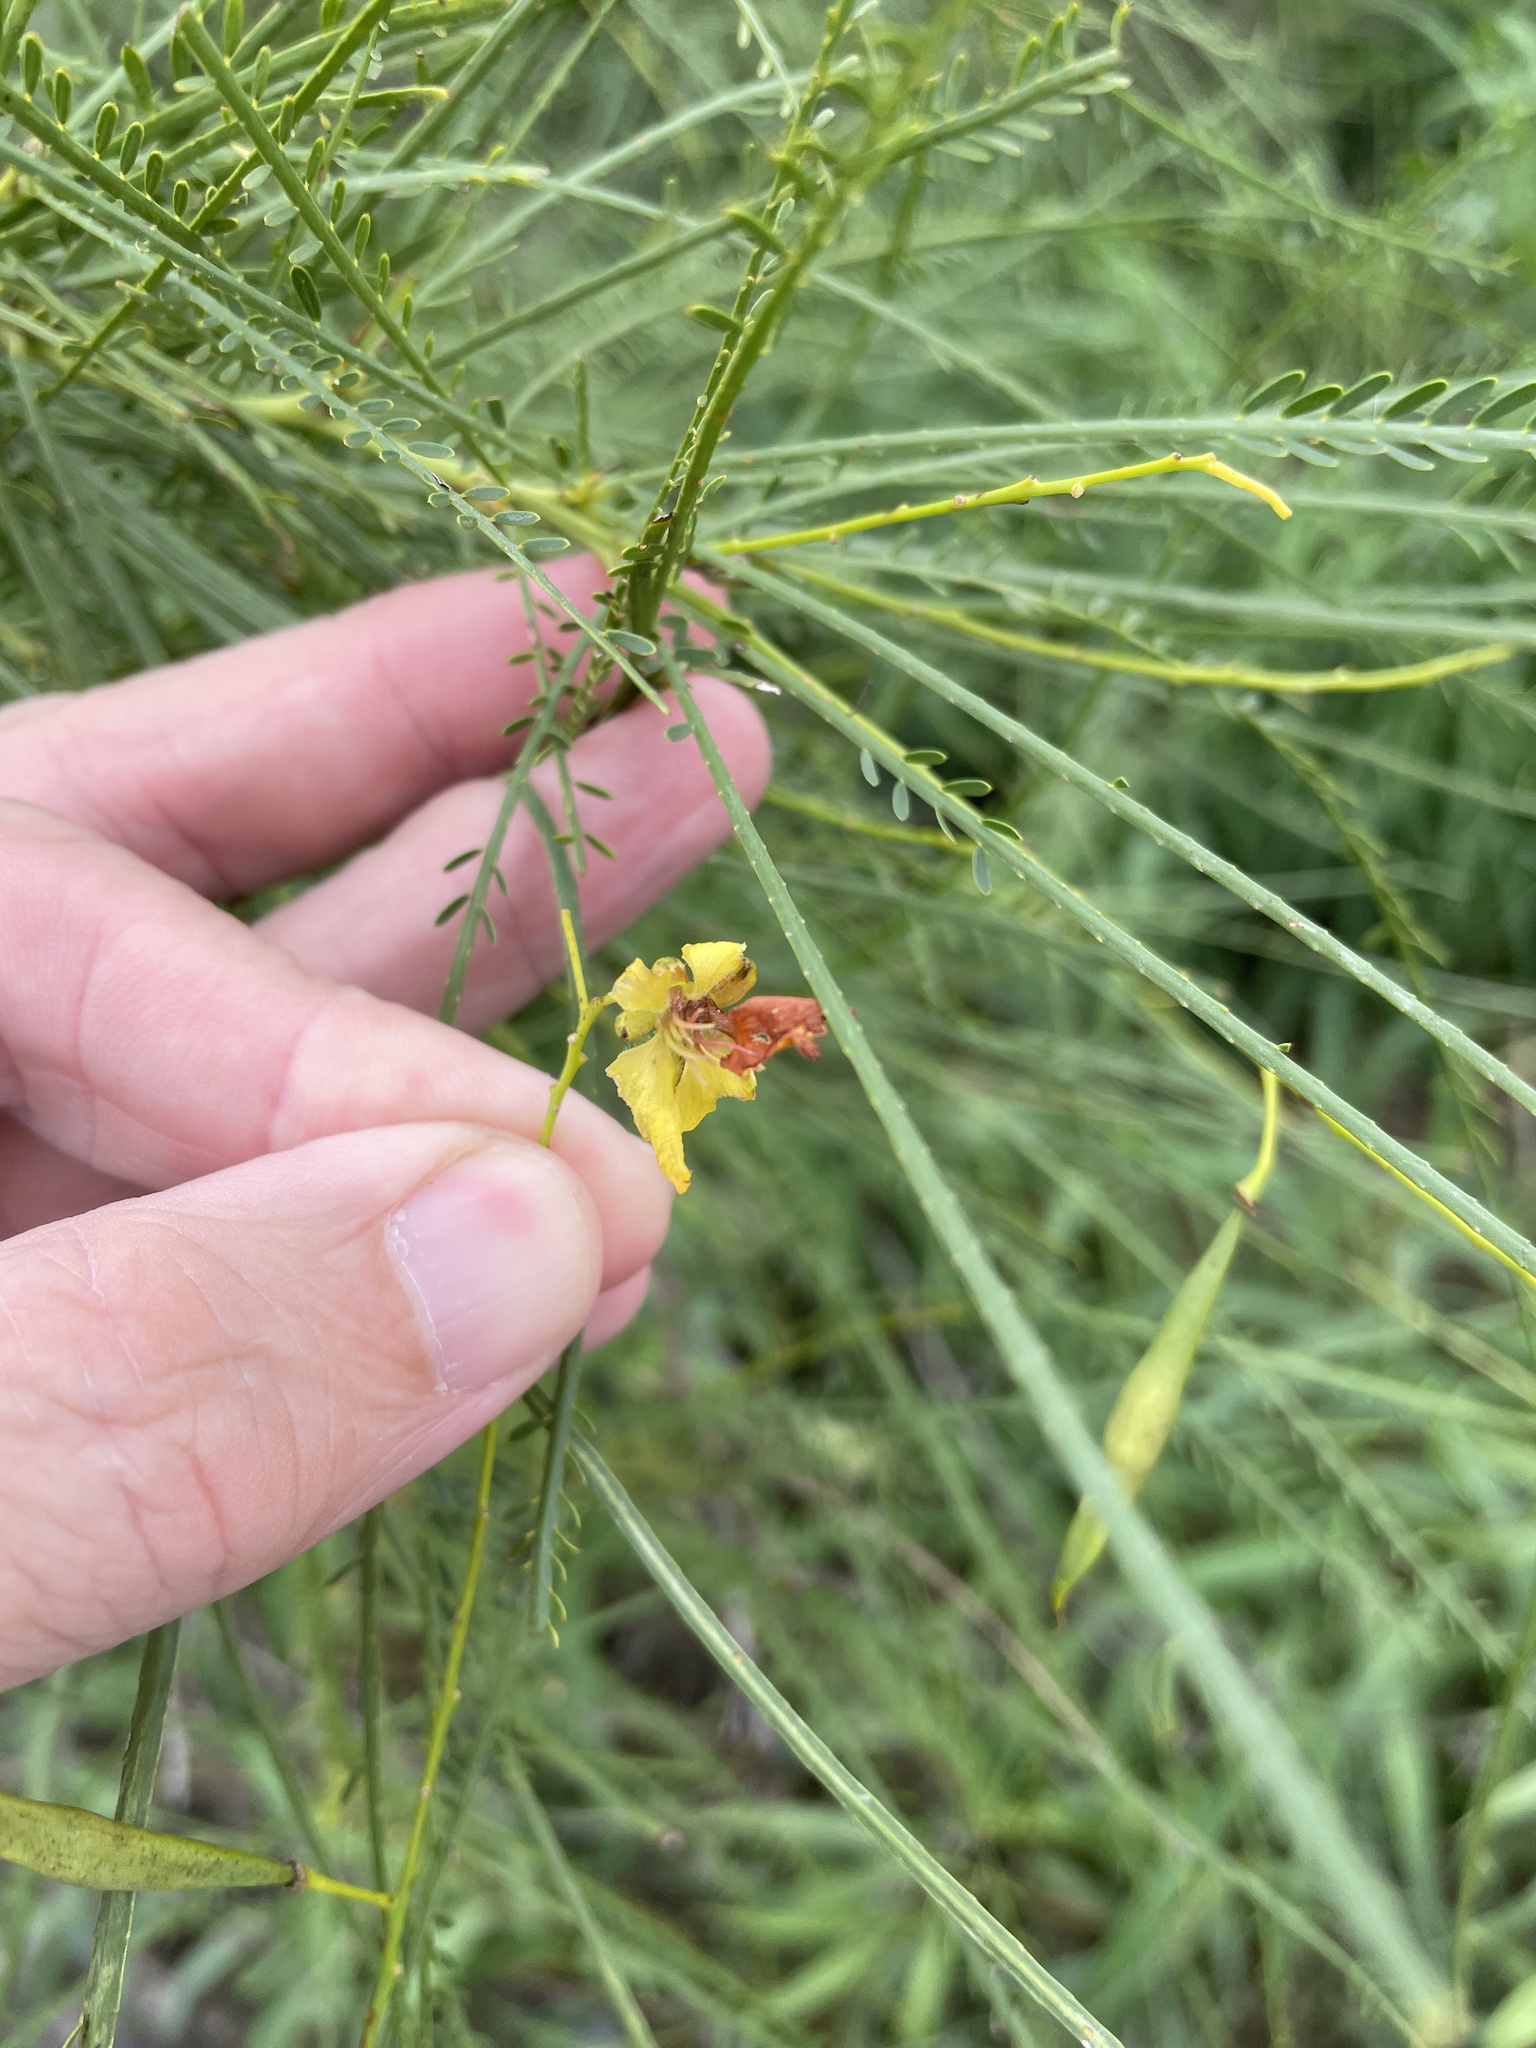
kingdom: Plantae
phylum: Tracheophyta
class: Magnoliopsida
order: Fabales
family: Fabaceae
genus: Parkinsonia
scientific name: Parkinsonia aculeata
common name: Jerusalem thorn
